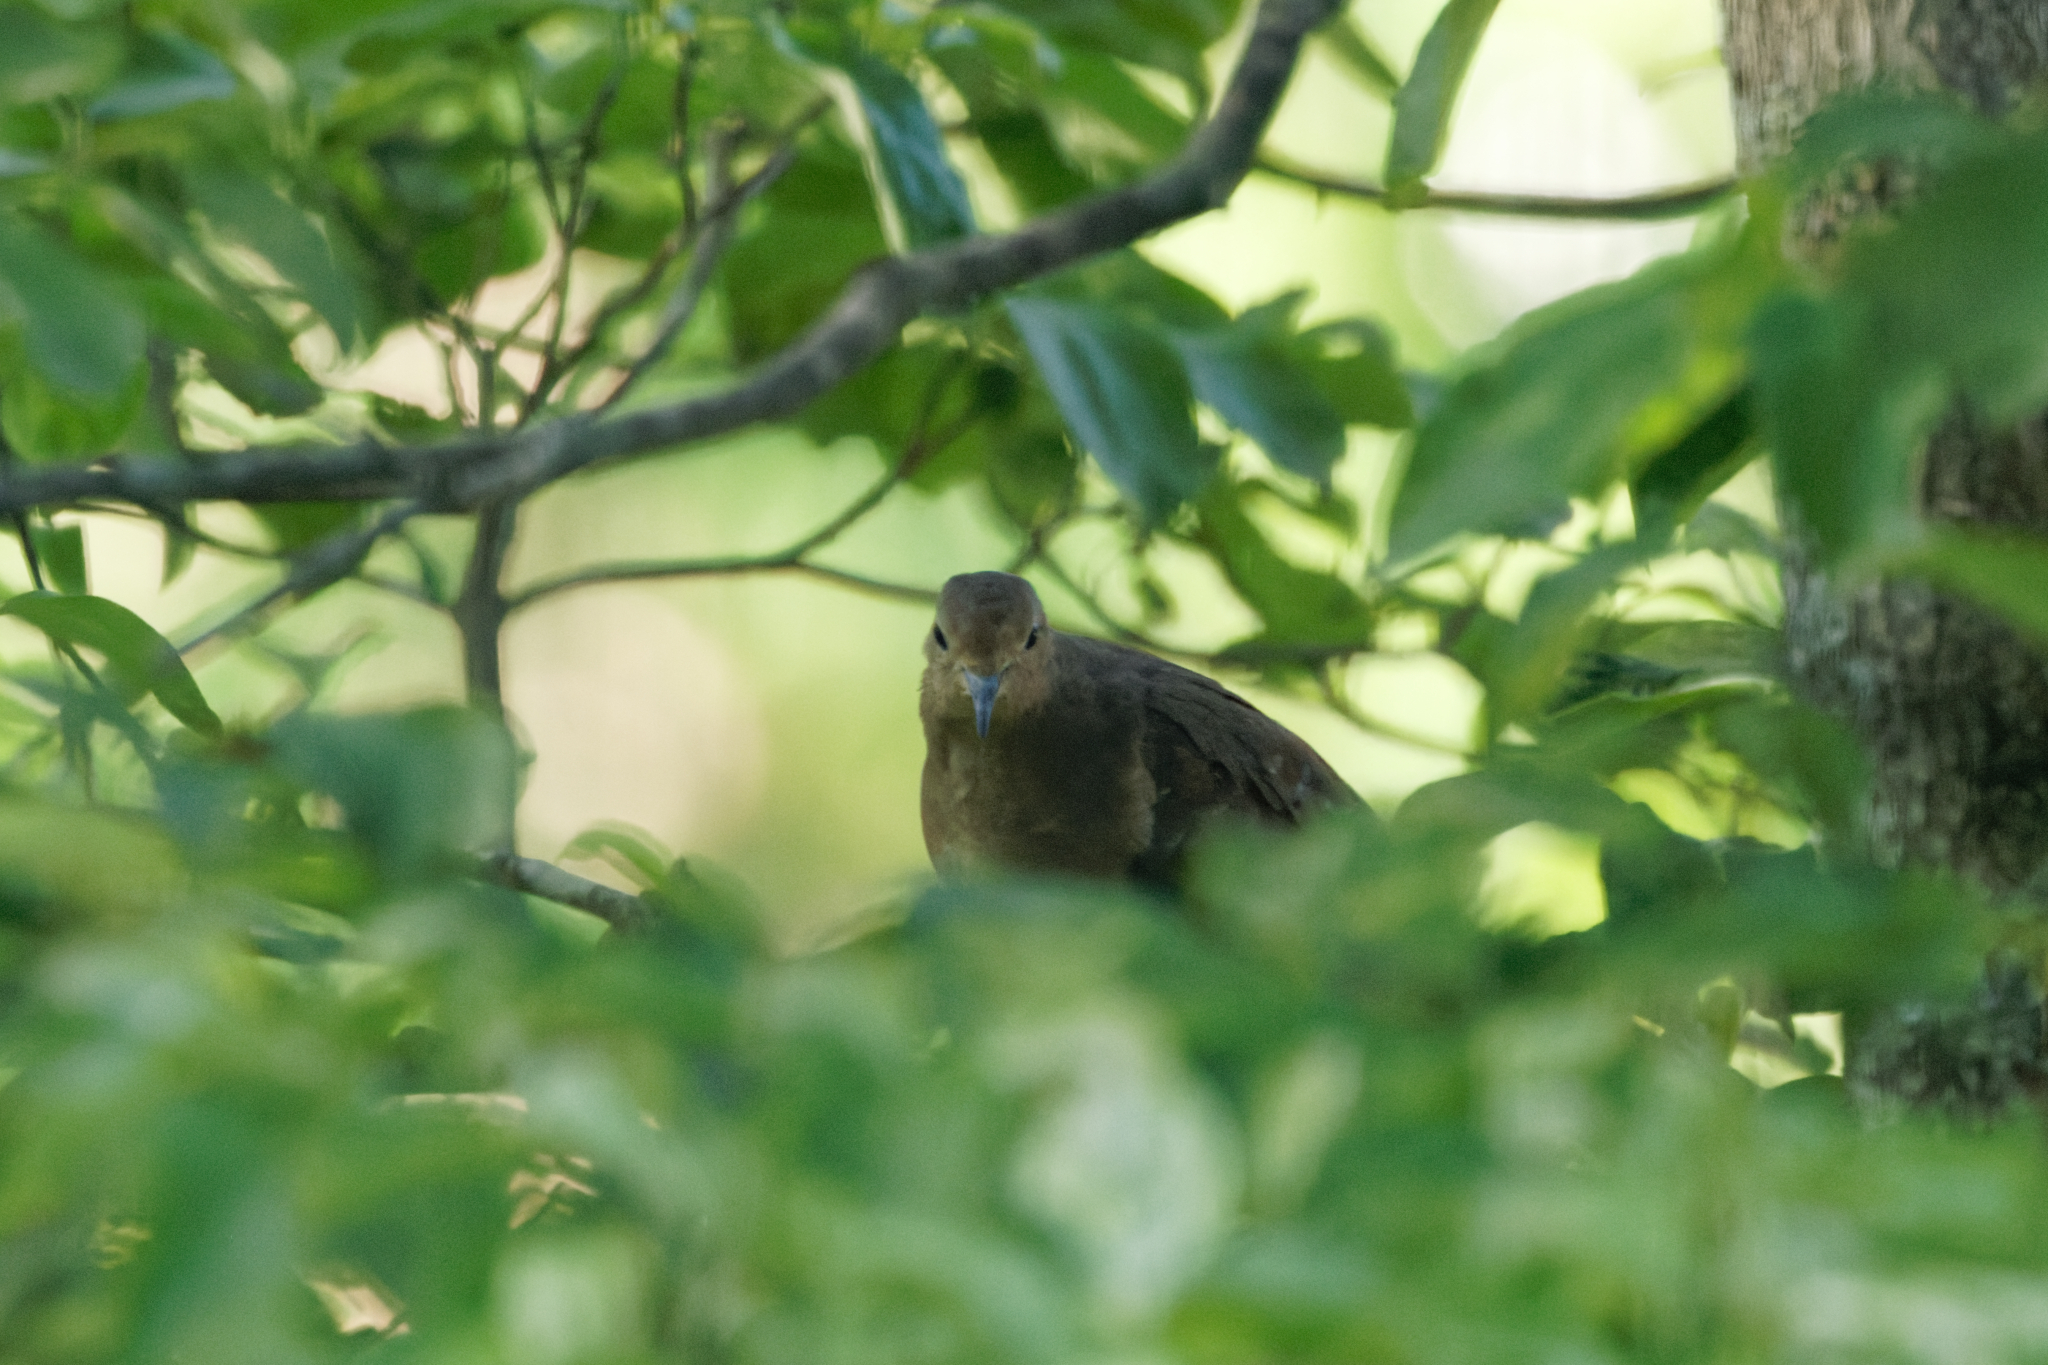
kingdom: Animalia
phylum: Chordata
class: Aves
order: Columbiformes
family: Columbidae
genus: Zenaida
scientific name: Zenaida macroura
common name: Mourning dove
